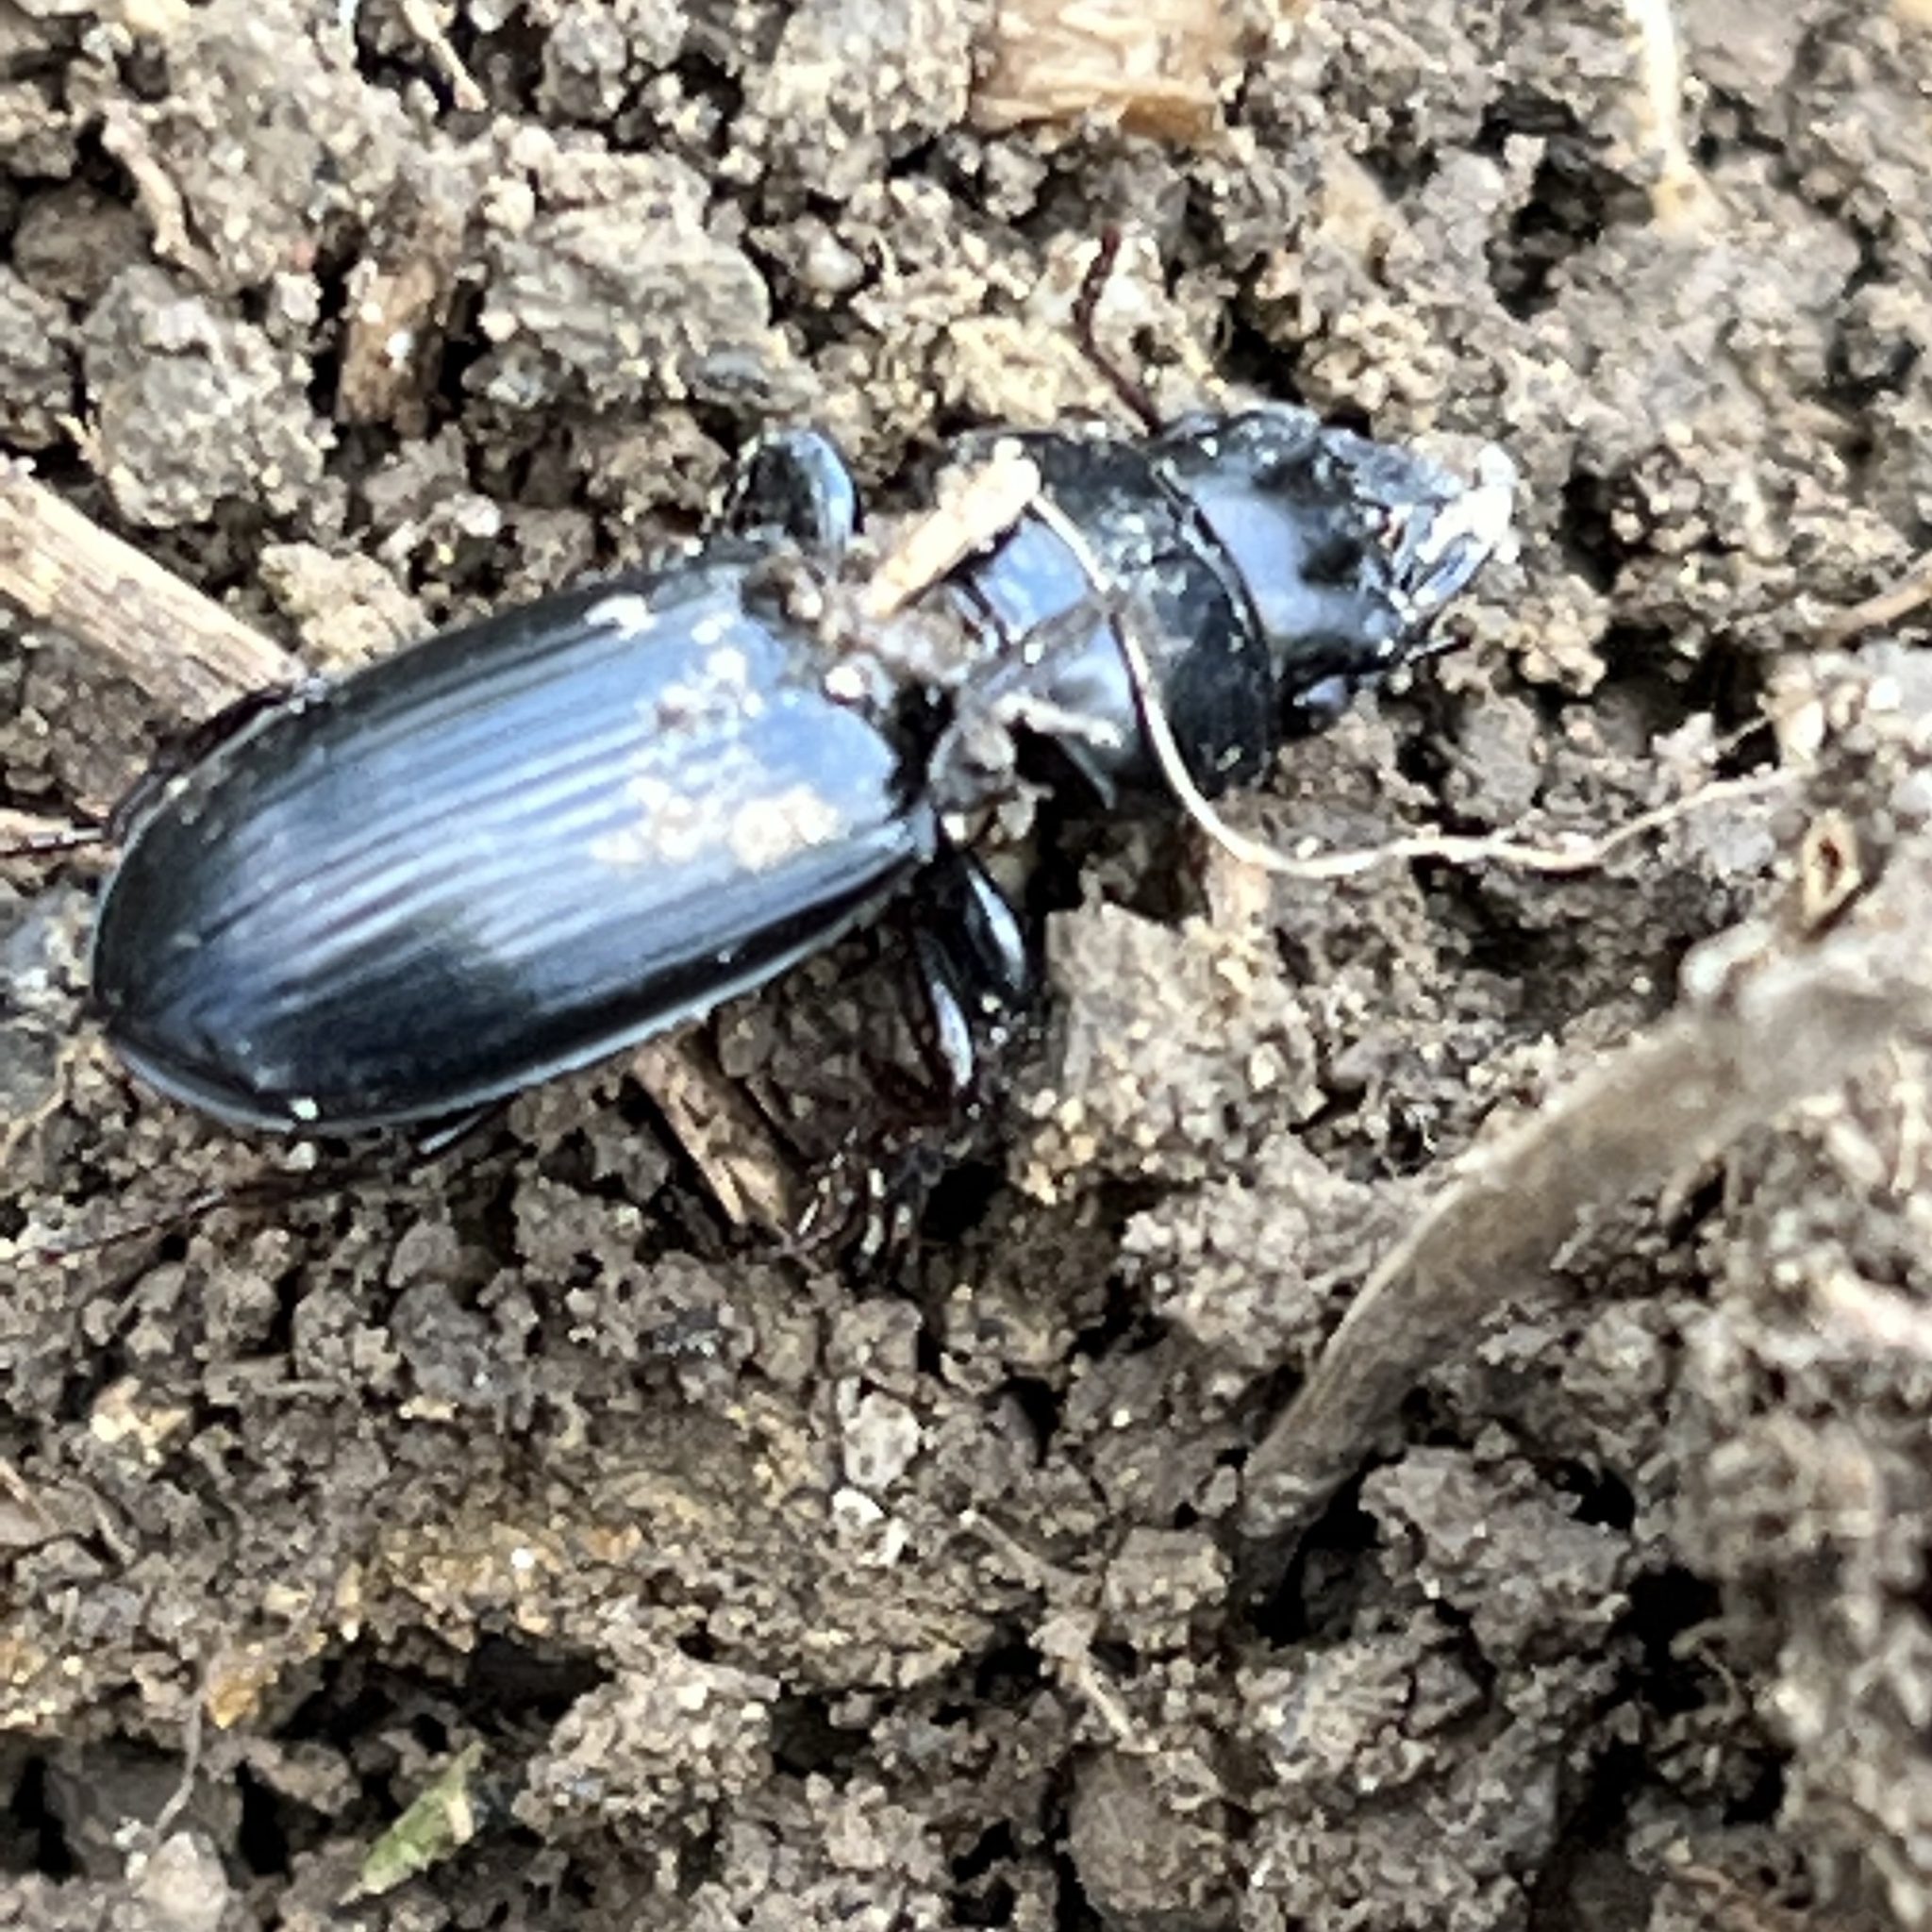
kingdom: Animalia
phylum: Arthropoda
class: Insecta
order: Coleoptera
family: Carabidae
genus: Scarites
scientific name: Scarites subterraneus
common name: Big-headed ground beetle
